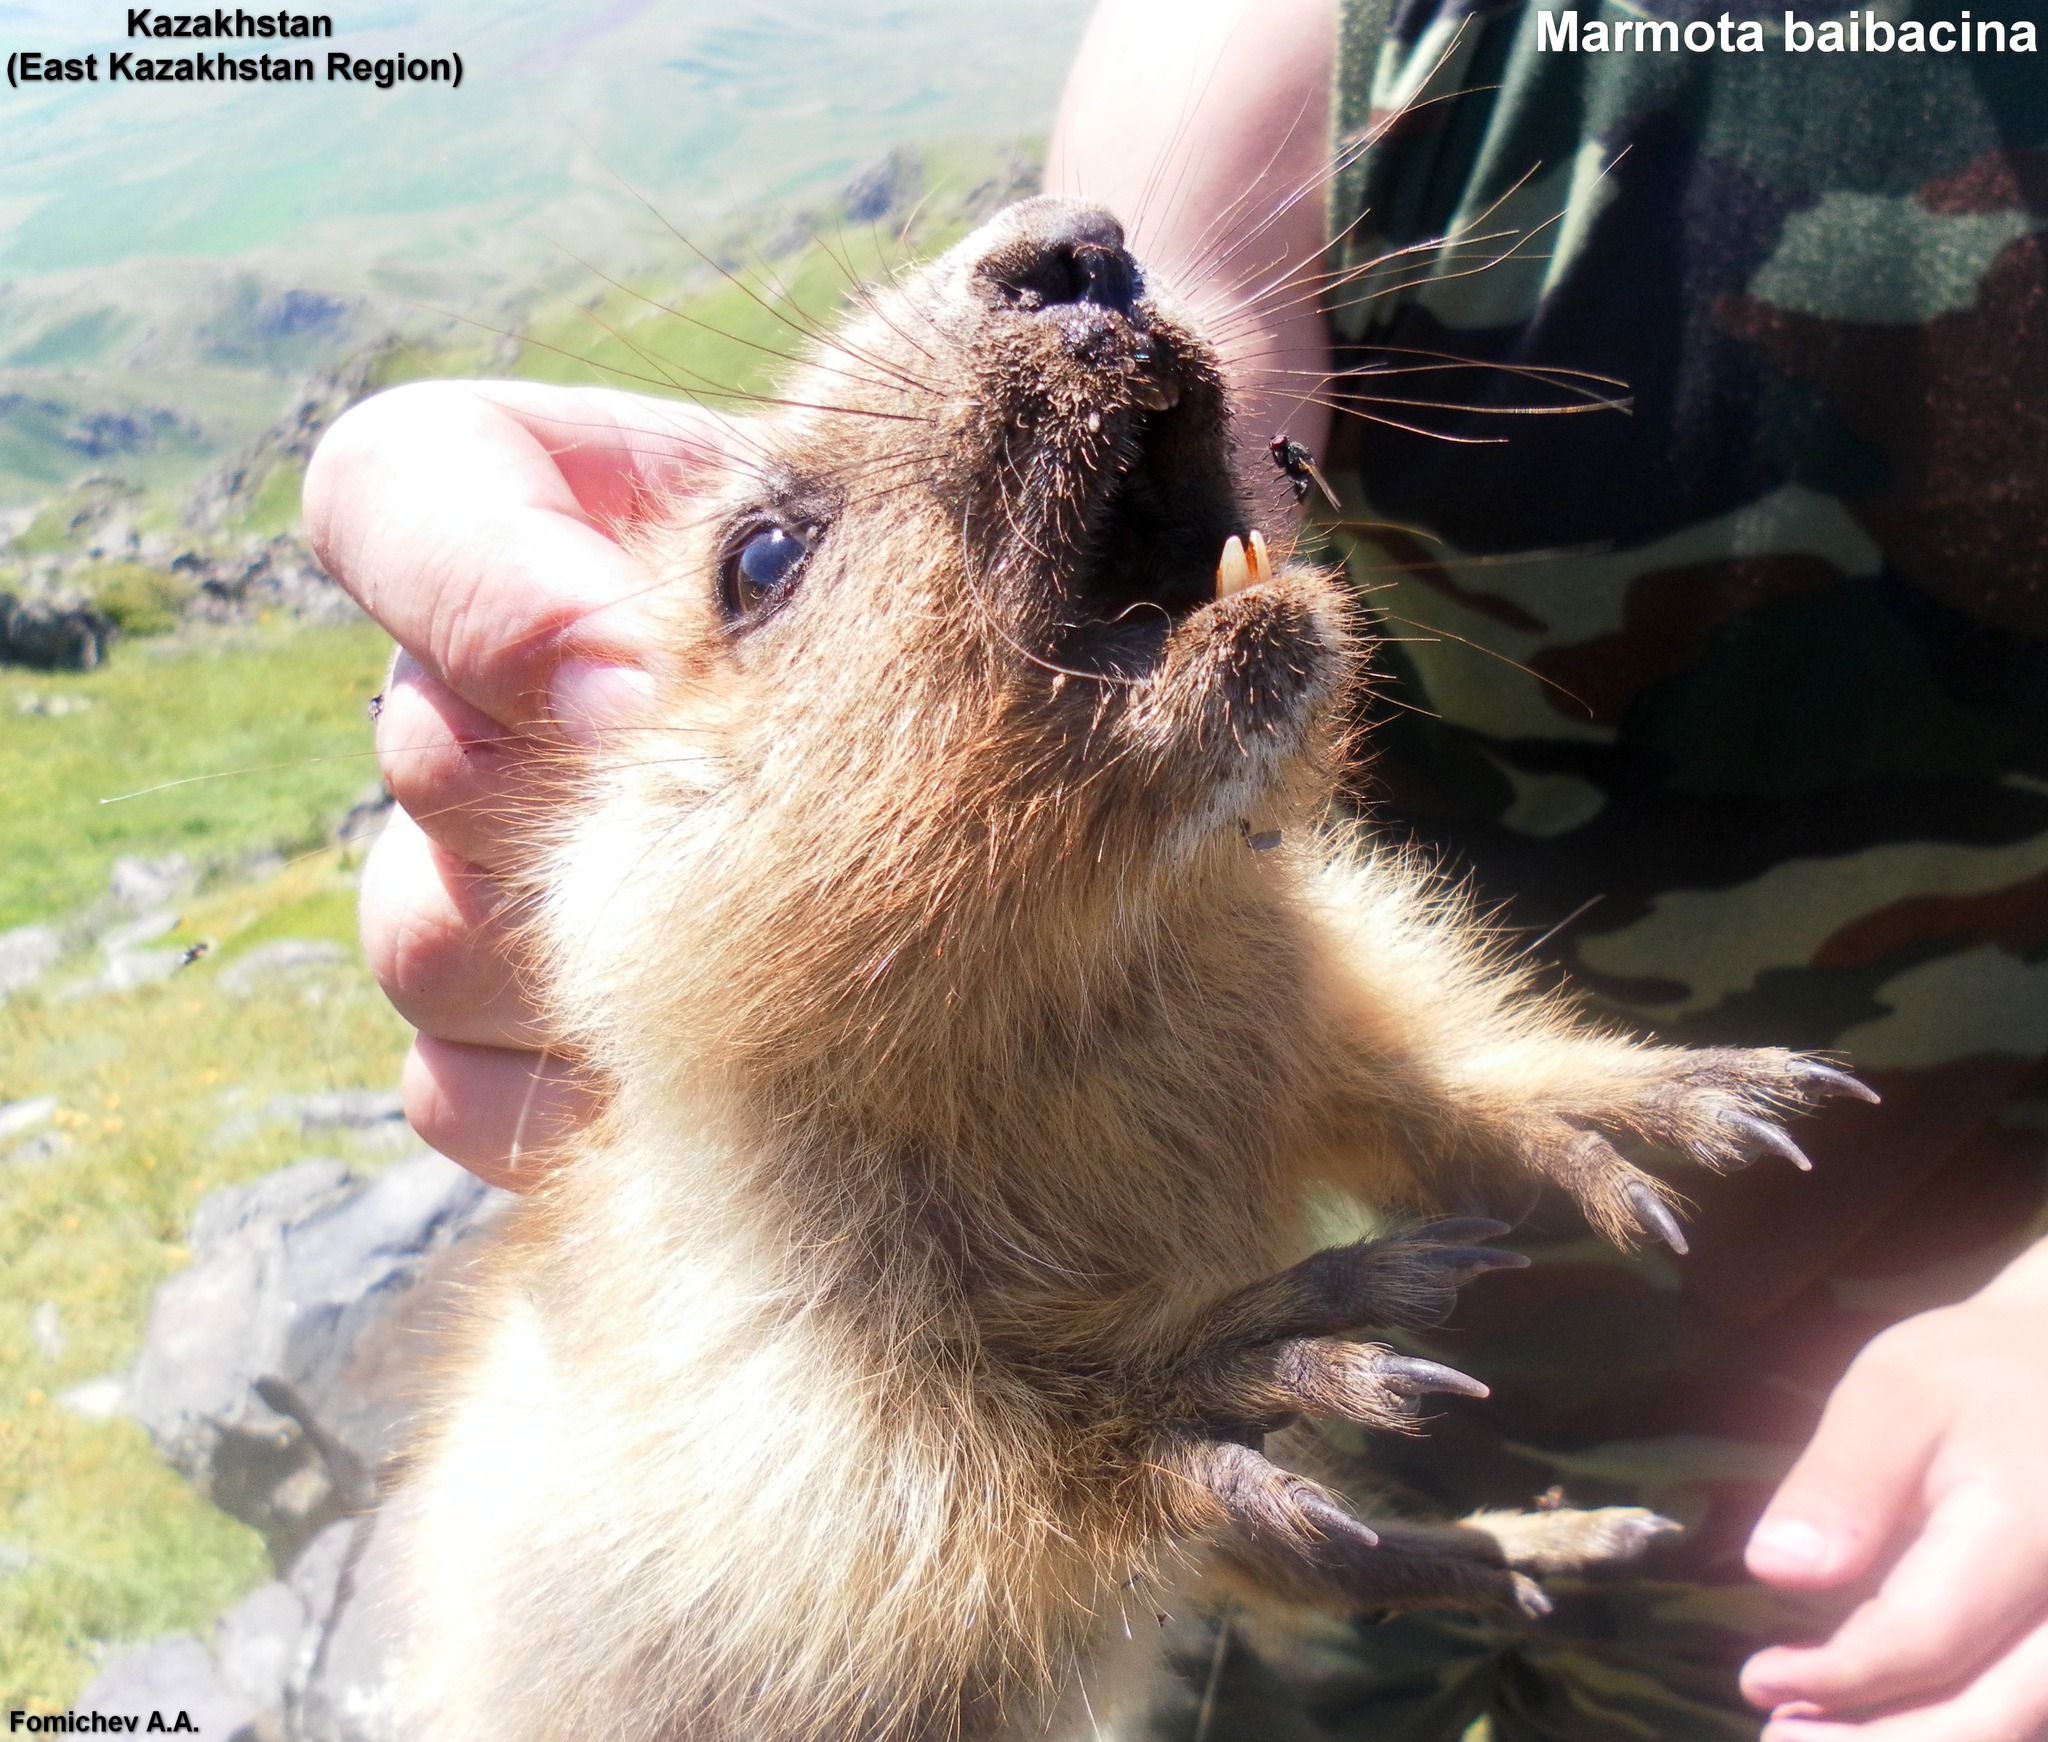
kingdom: Animalia
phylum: Chordata
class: Mammalia
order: Rodentia
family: Sciuridae
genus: Marmota
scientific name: Marmota baibacina
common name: Gray marmot
